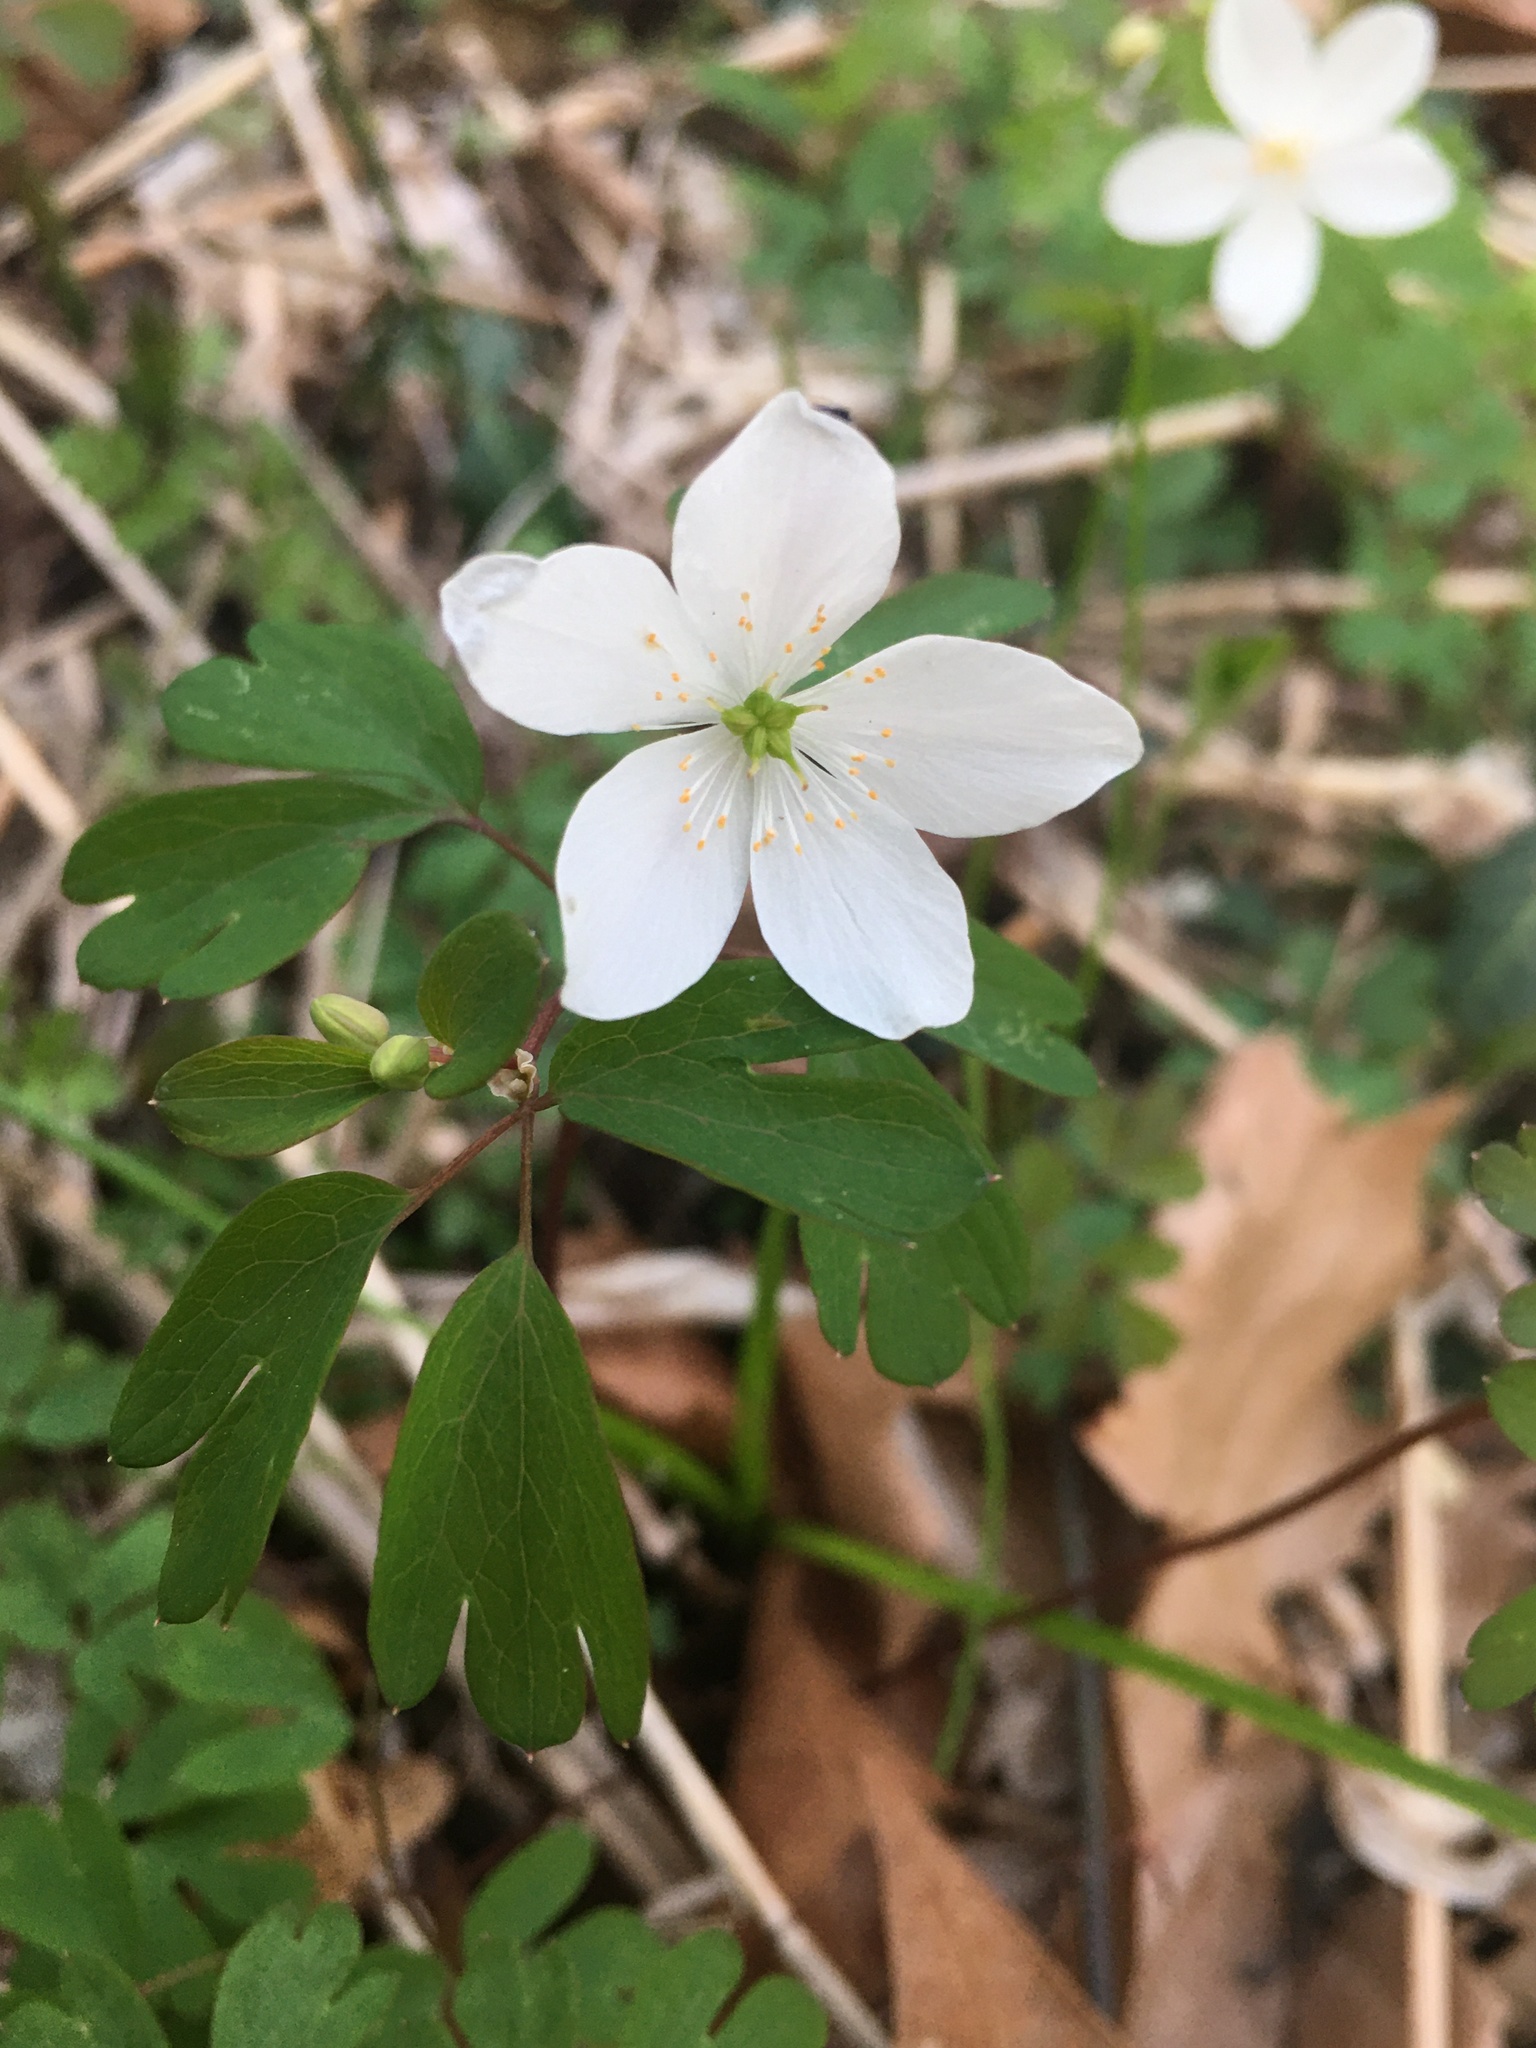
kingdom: Plantae
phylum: Tracheophyta
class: Magnoliopsida
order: Ranunculales
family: Ranunculaceae
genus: Enemion
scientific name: Enemion biternatum
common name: Eastern false rue-anemone
